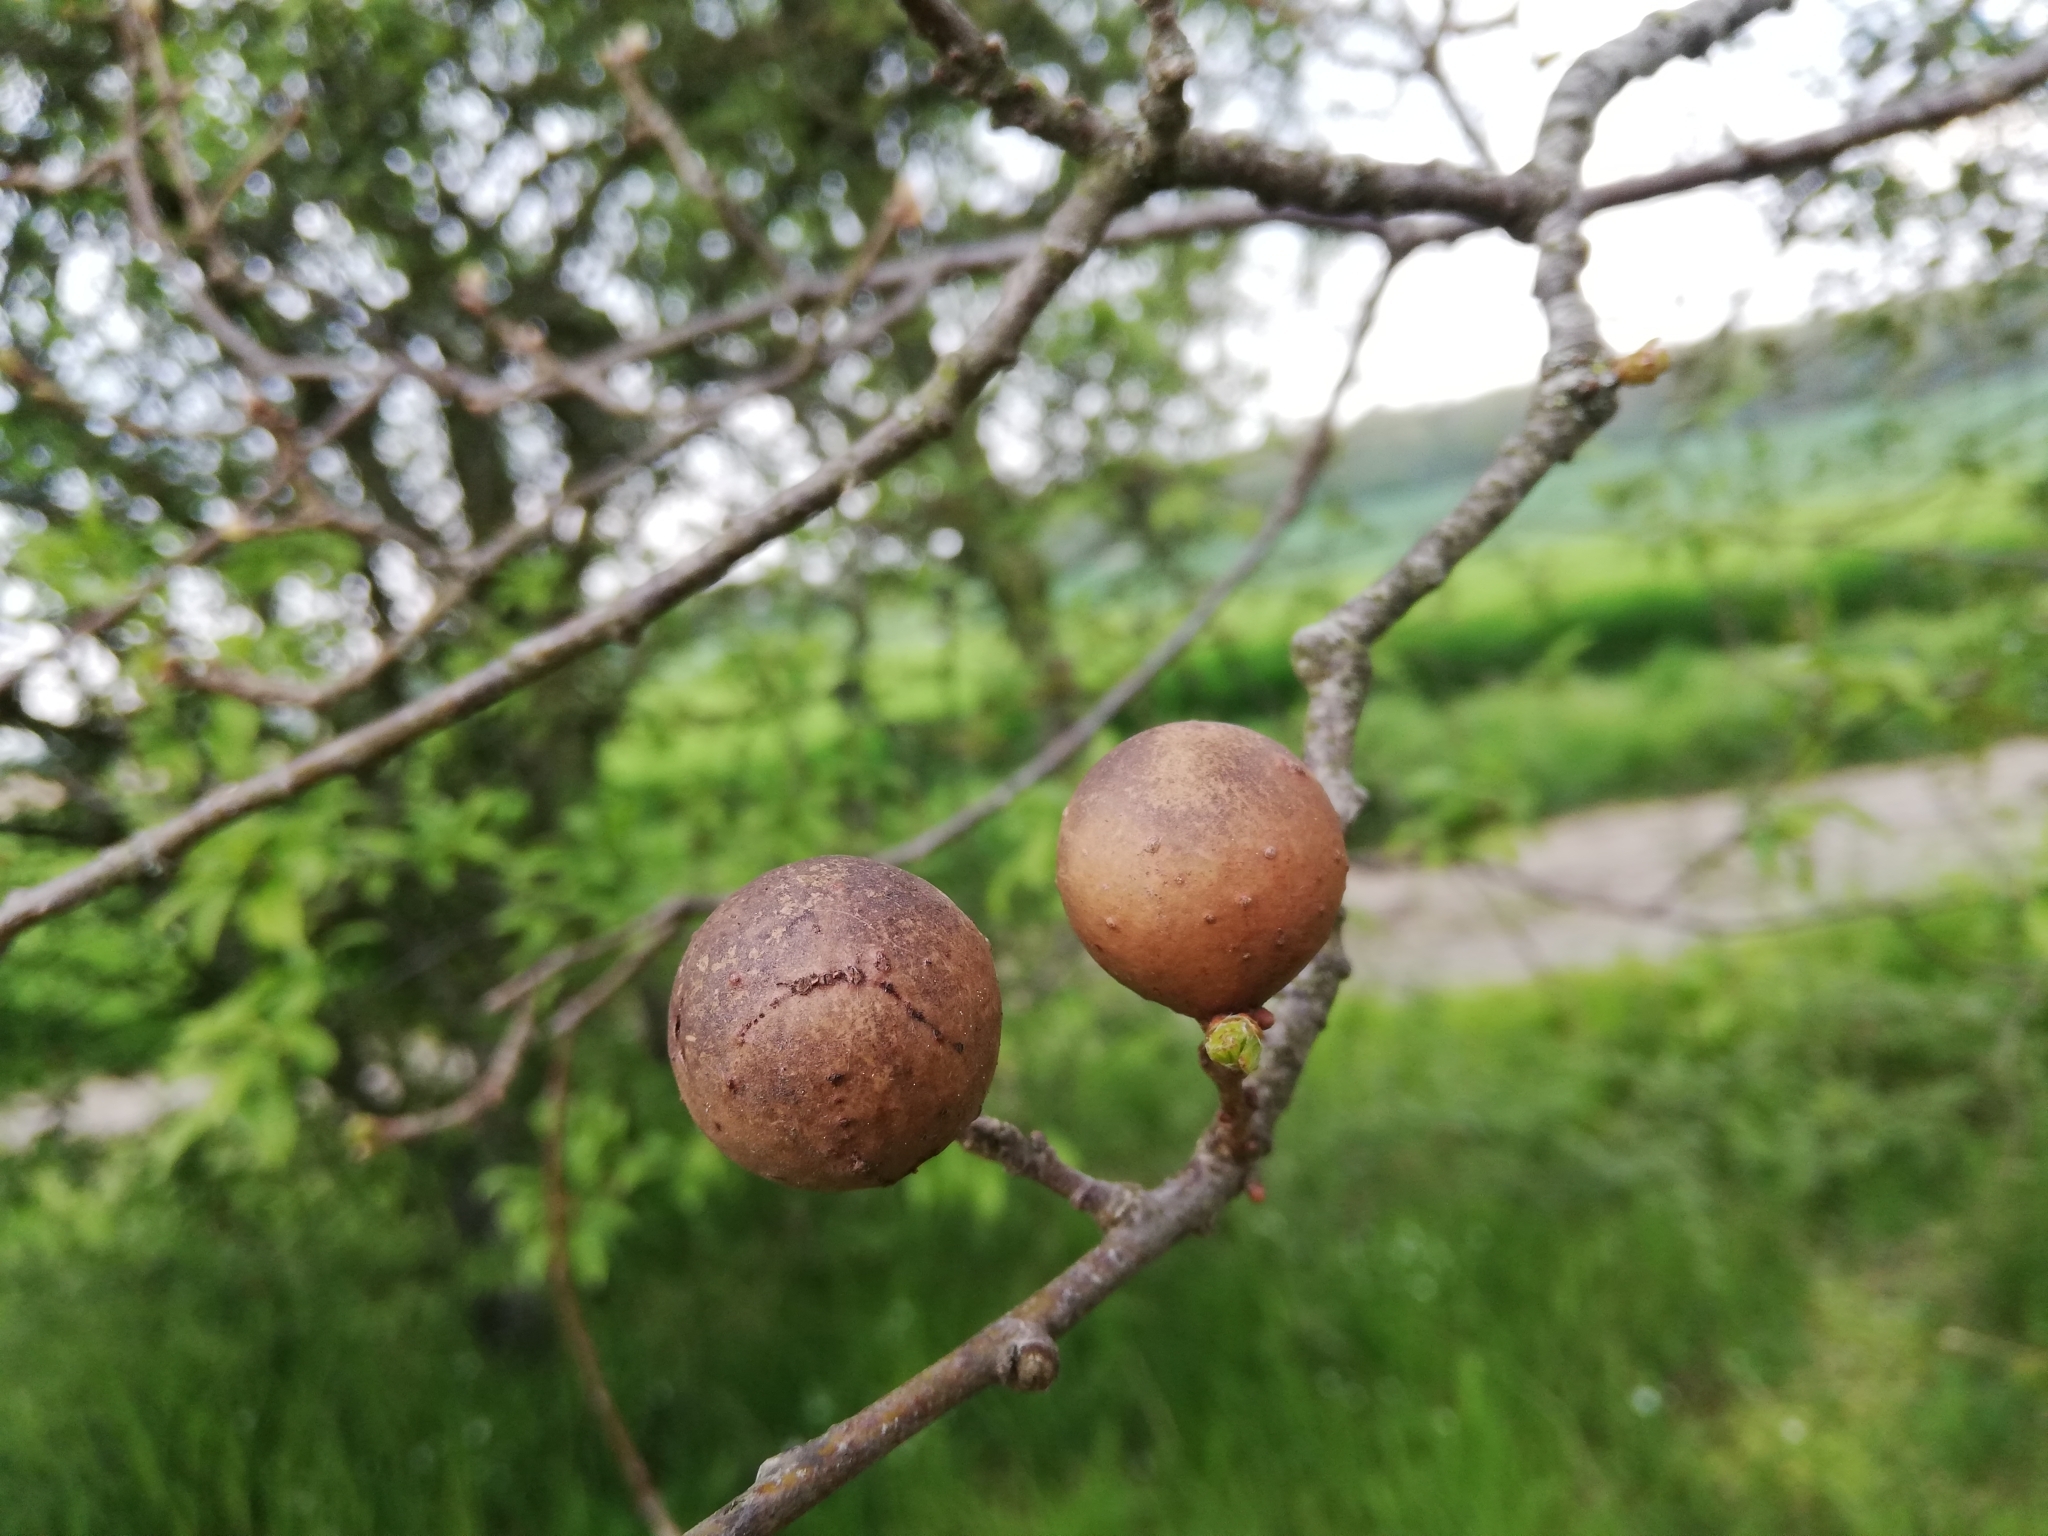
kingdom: Animalia
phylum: Arthropoda
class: Insecta
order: Hymenoptera
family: Cynipidae
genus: Andricus
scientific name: Andricus kollari
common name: Marble gall
